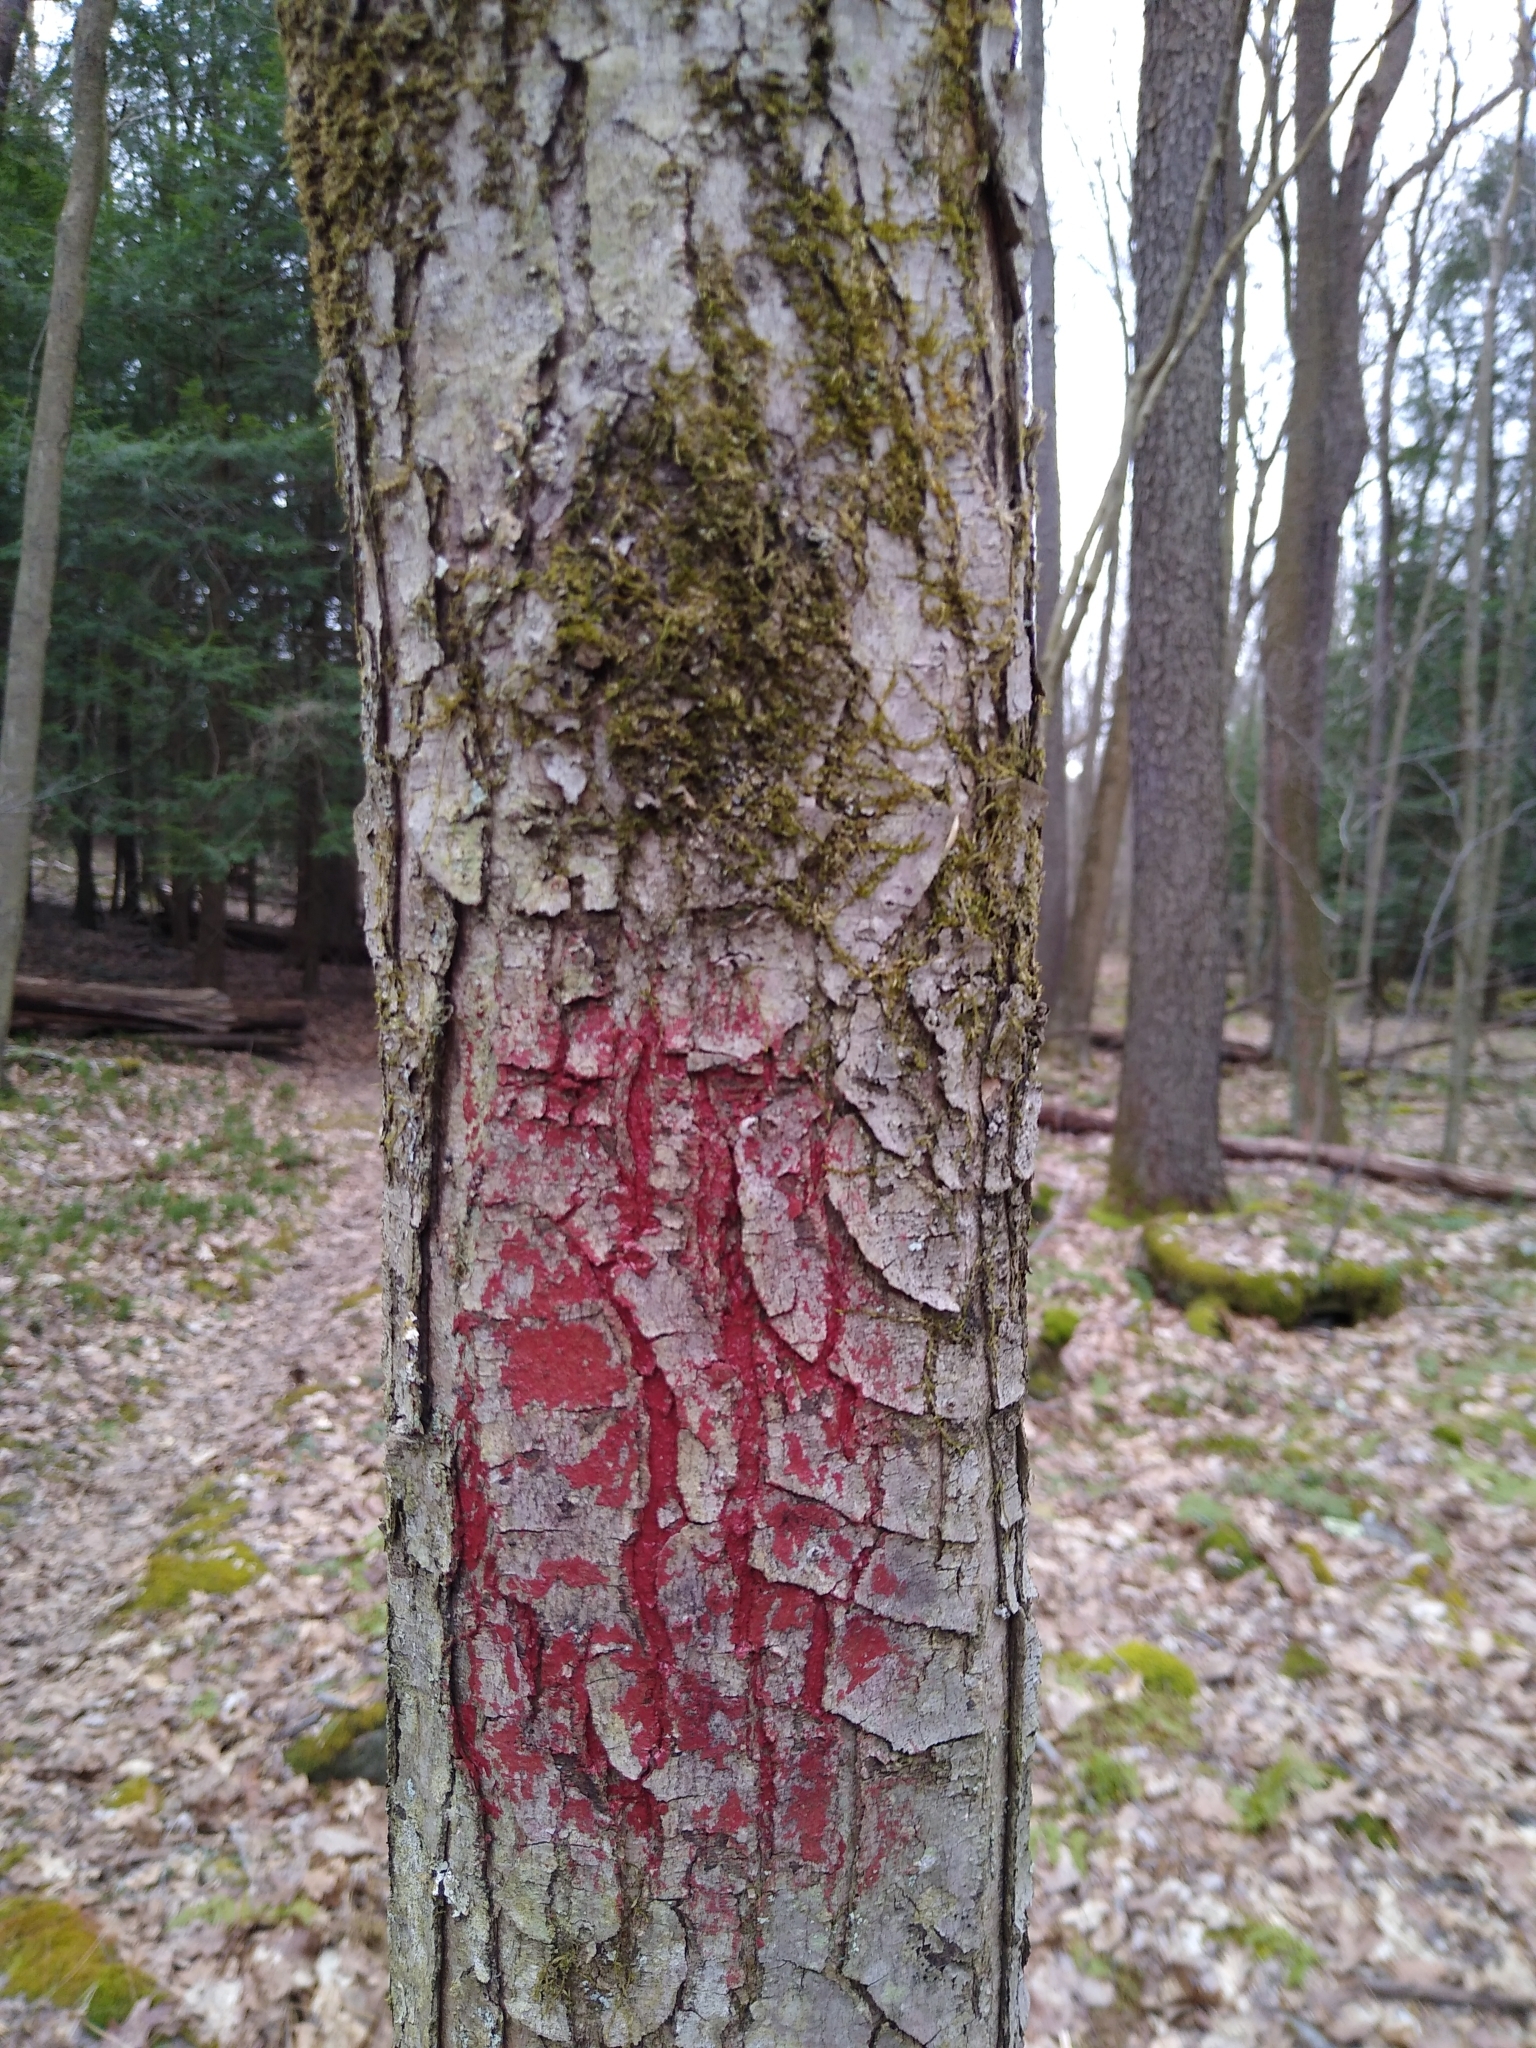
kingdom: Fungi
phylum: Ascomycota
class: Sordariomycetes
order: Hypocreales
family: Nectriaceae
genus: Neonectria
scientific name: Neonectria ditissima
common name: Apple canker
